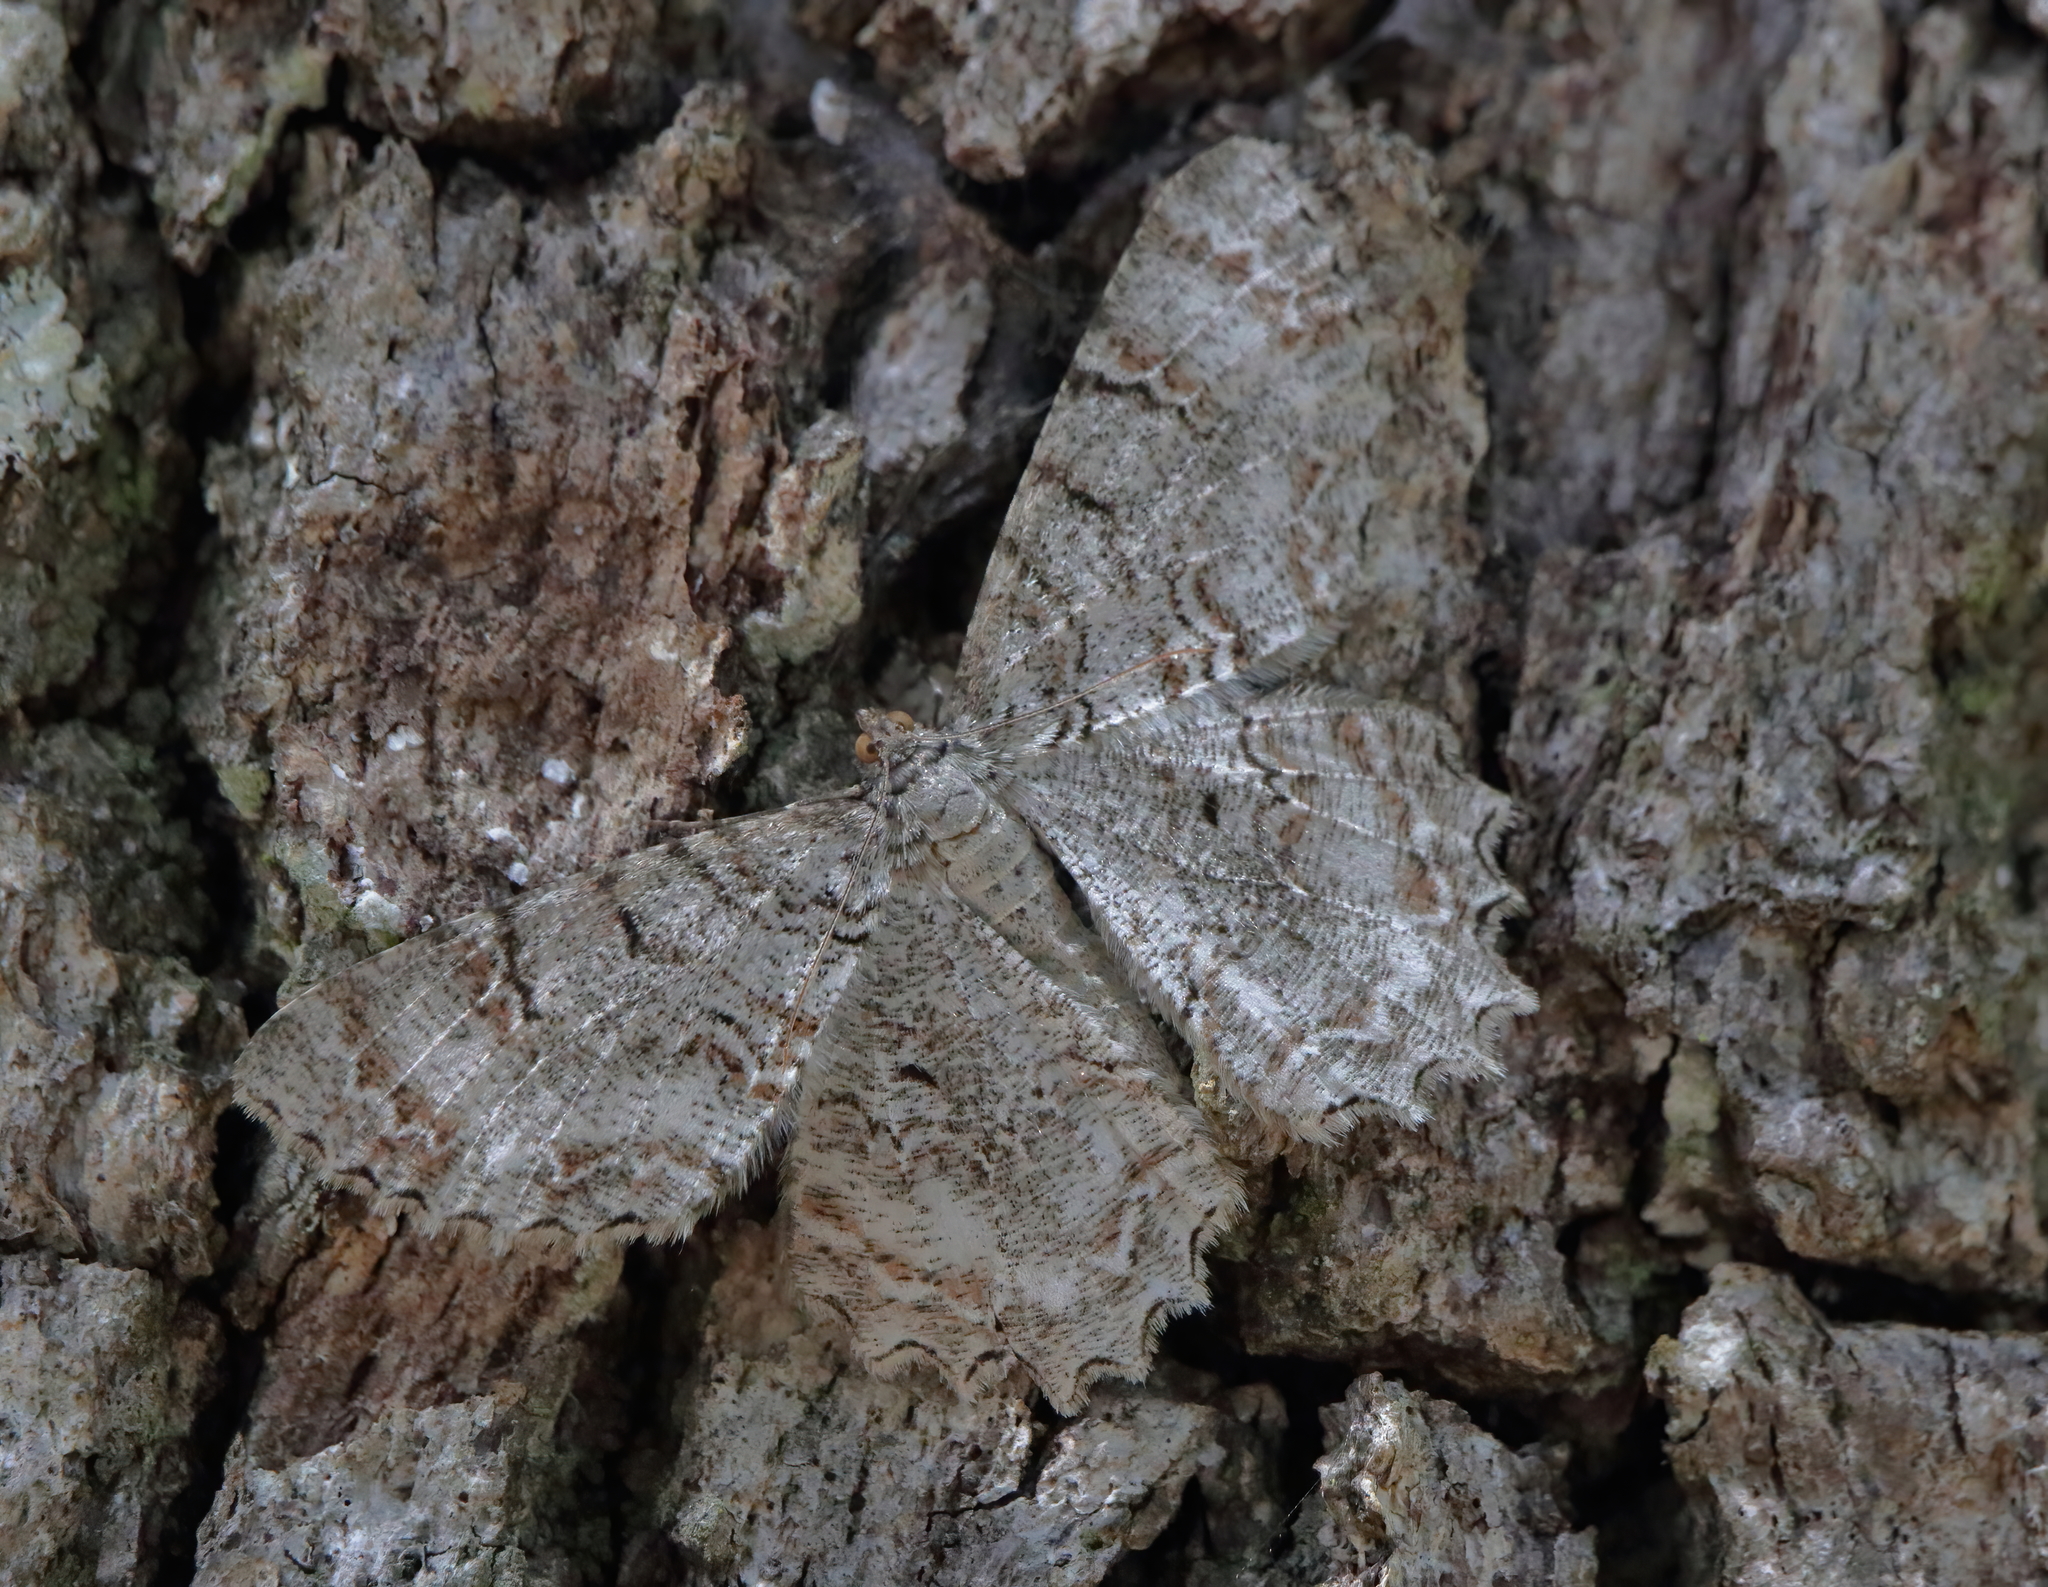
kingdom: Animalia
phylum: Arthropoda
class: Insecta
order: Lepidoptera
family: Geometridae
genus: Epimecis
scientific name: Epimecis hortaria
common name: Tulip-tree beauty
